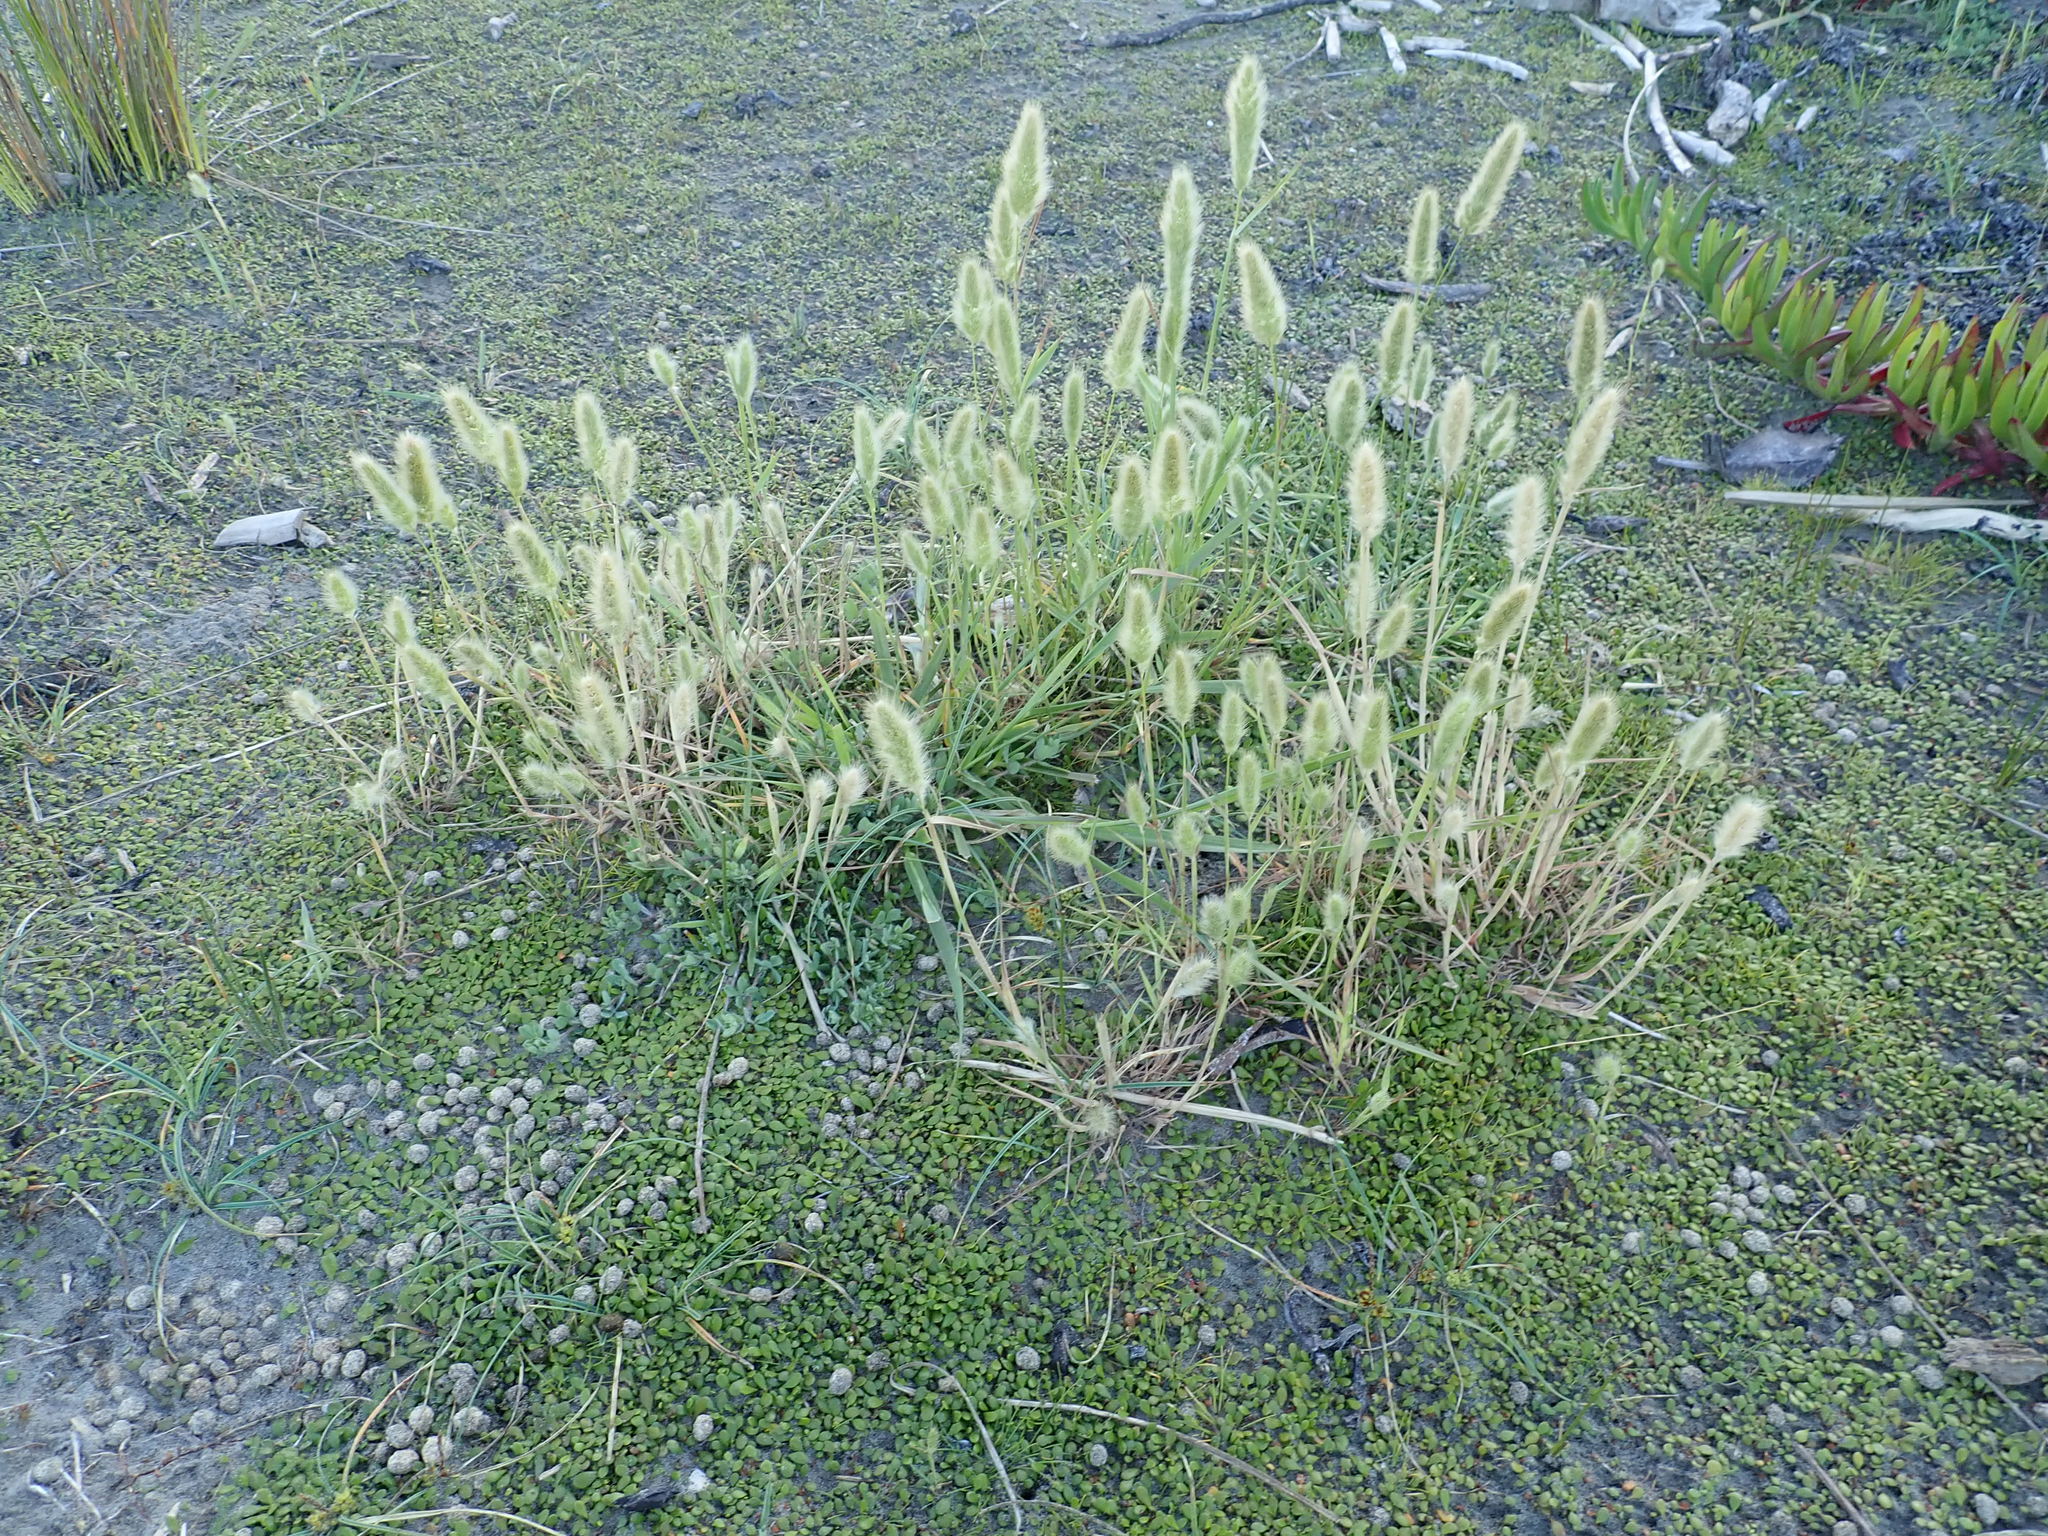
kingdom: Plantae
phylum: Tracheophyta
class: Liliopsida
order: Poales
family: Poaceae
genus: Lagurus
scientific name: Lagurus ovatus
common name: Hare's-tail
